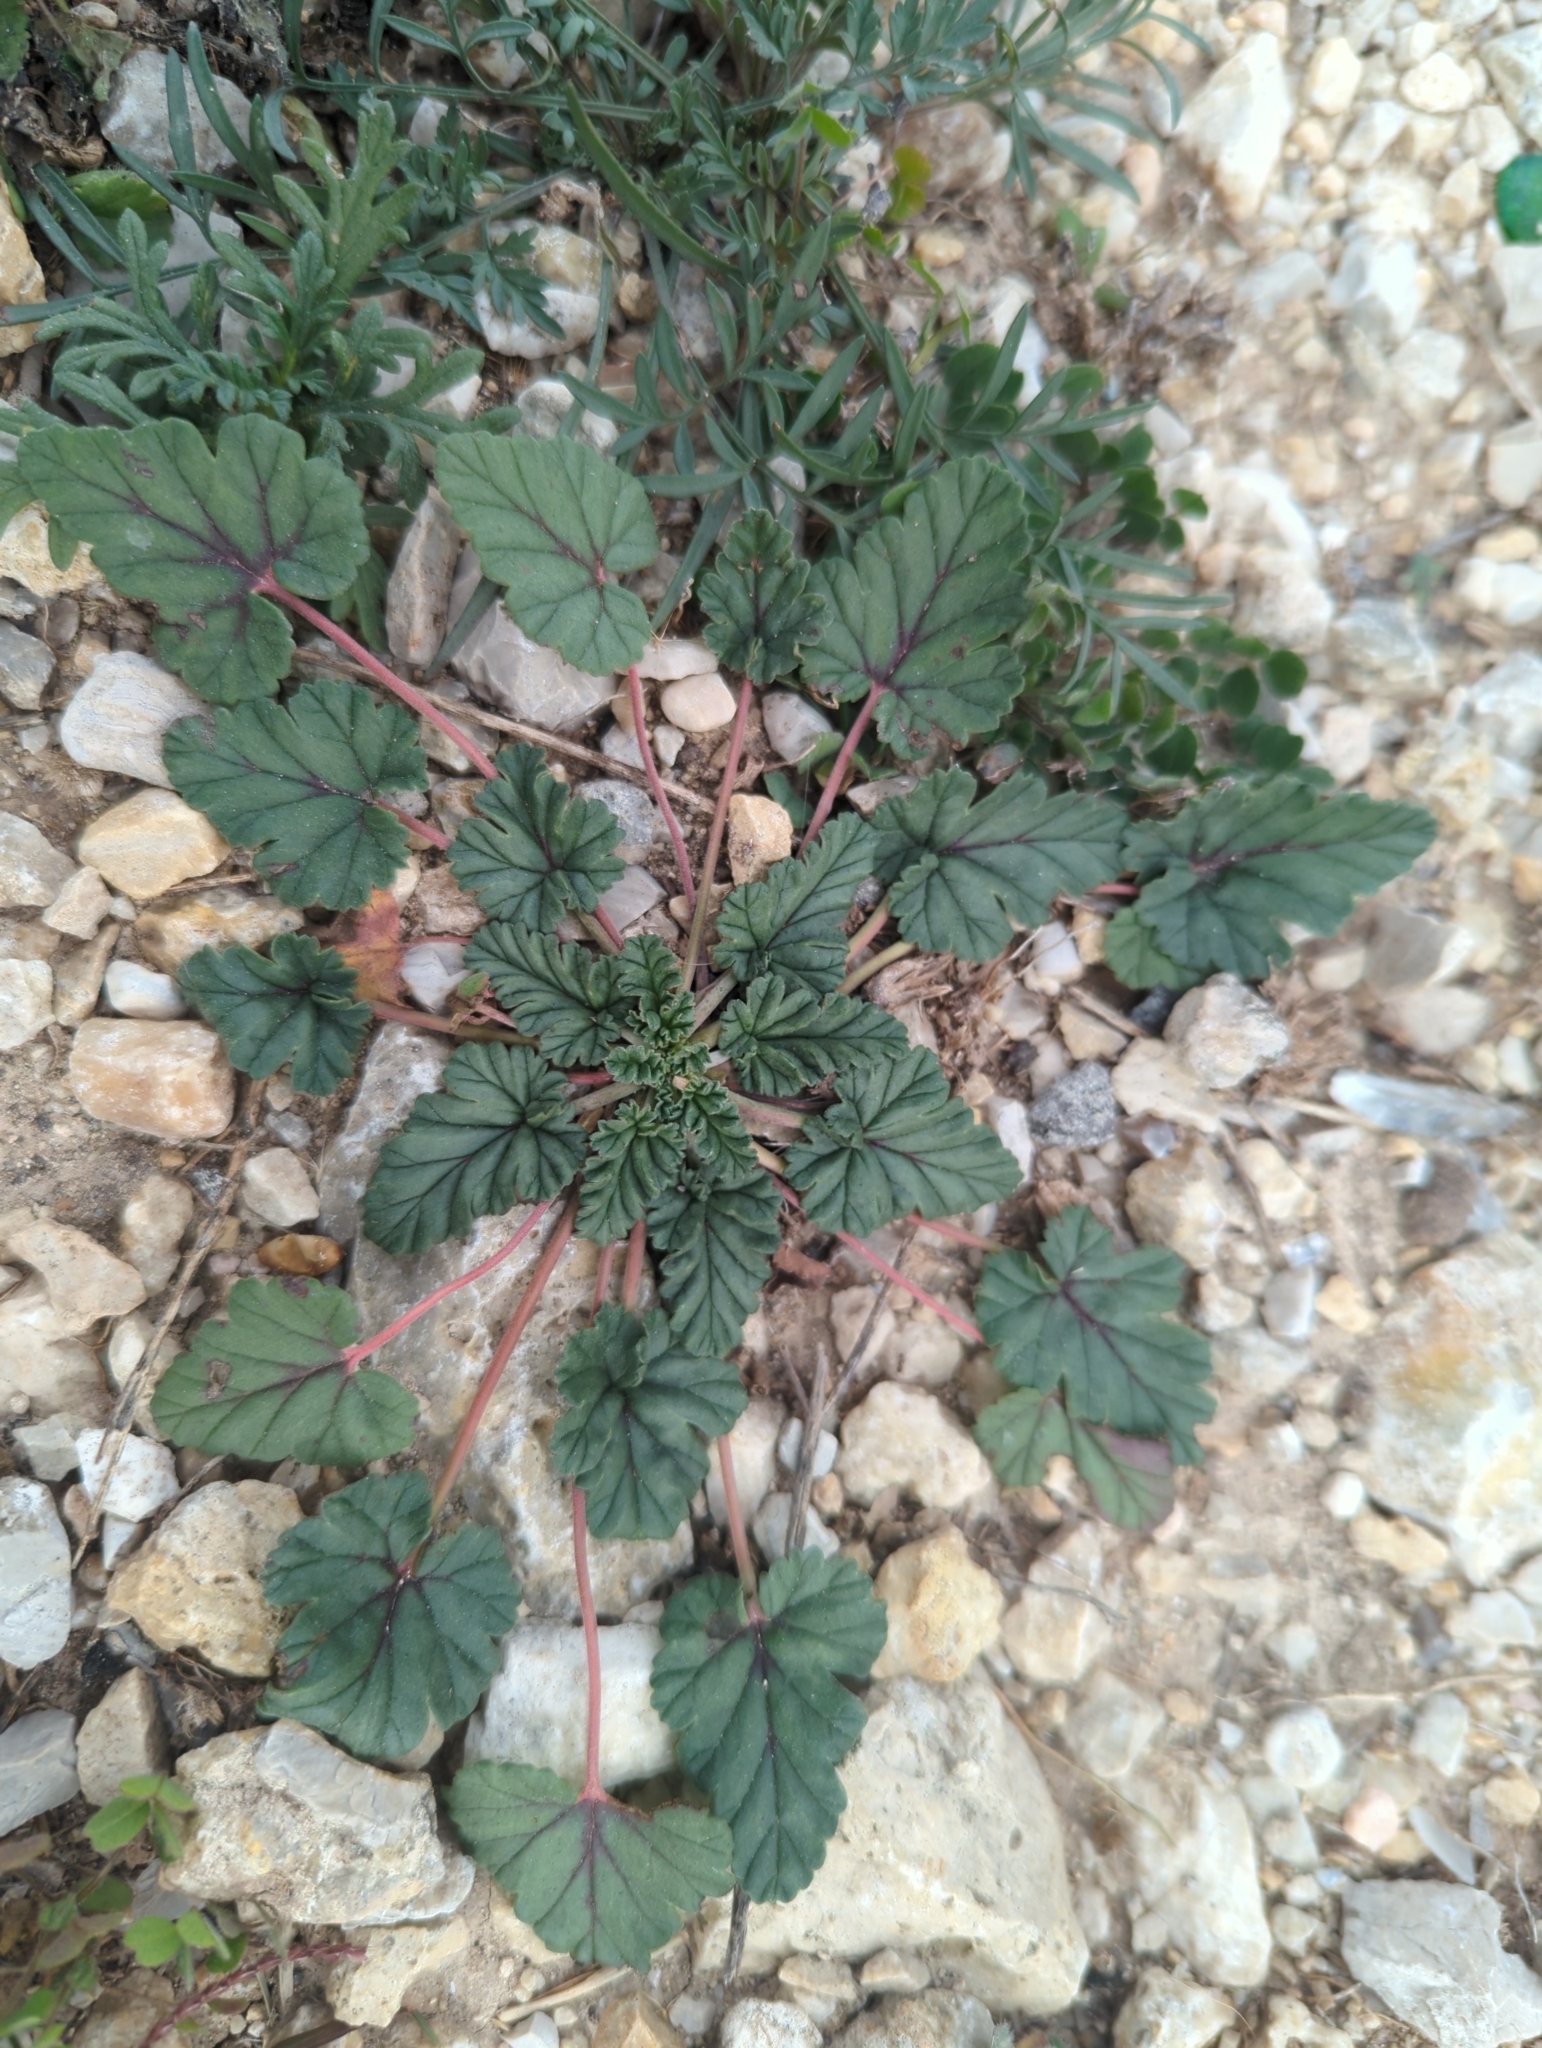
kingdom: Plantae
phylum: Tracheophyta
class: Magnoliopsida
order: Geraniales
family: Geraniaceae
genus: Erodium
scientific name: Erodium texanum
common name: Texas stork's-bill
